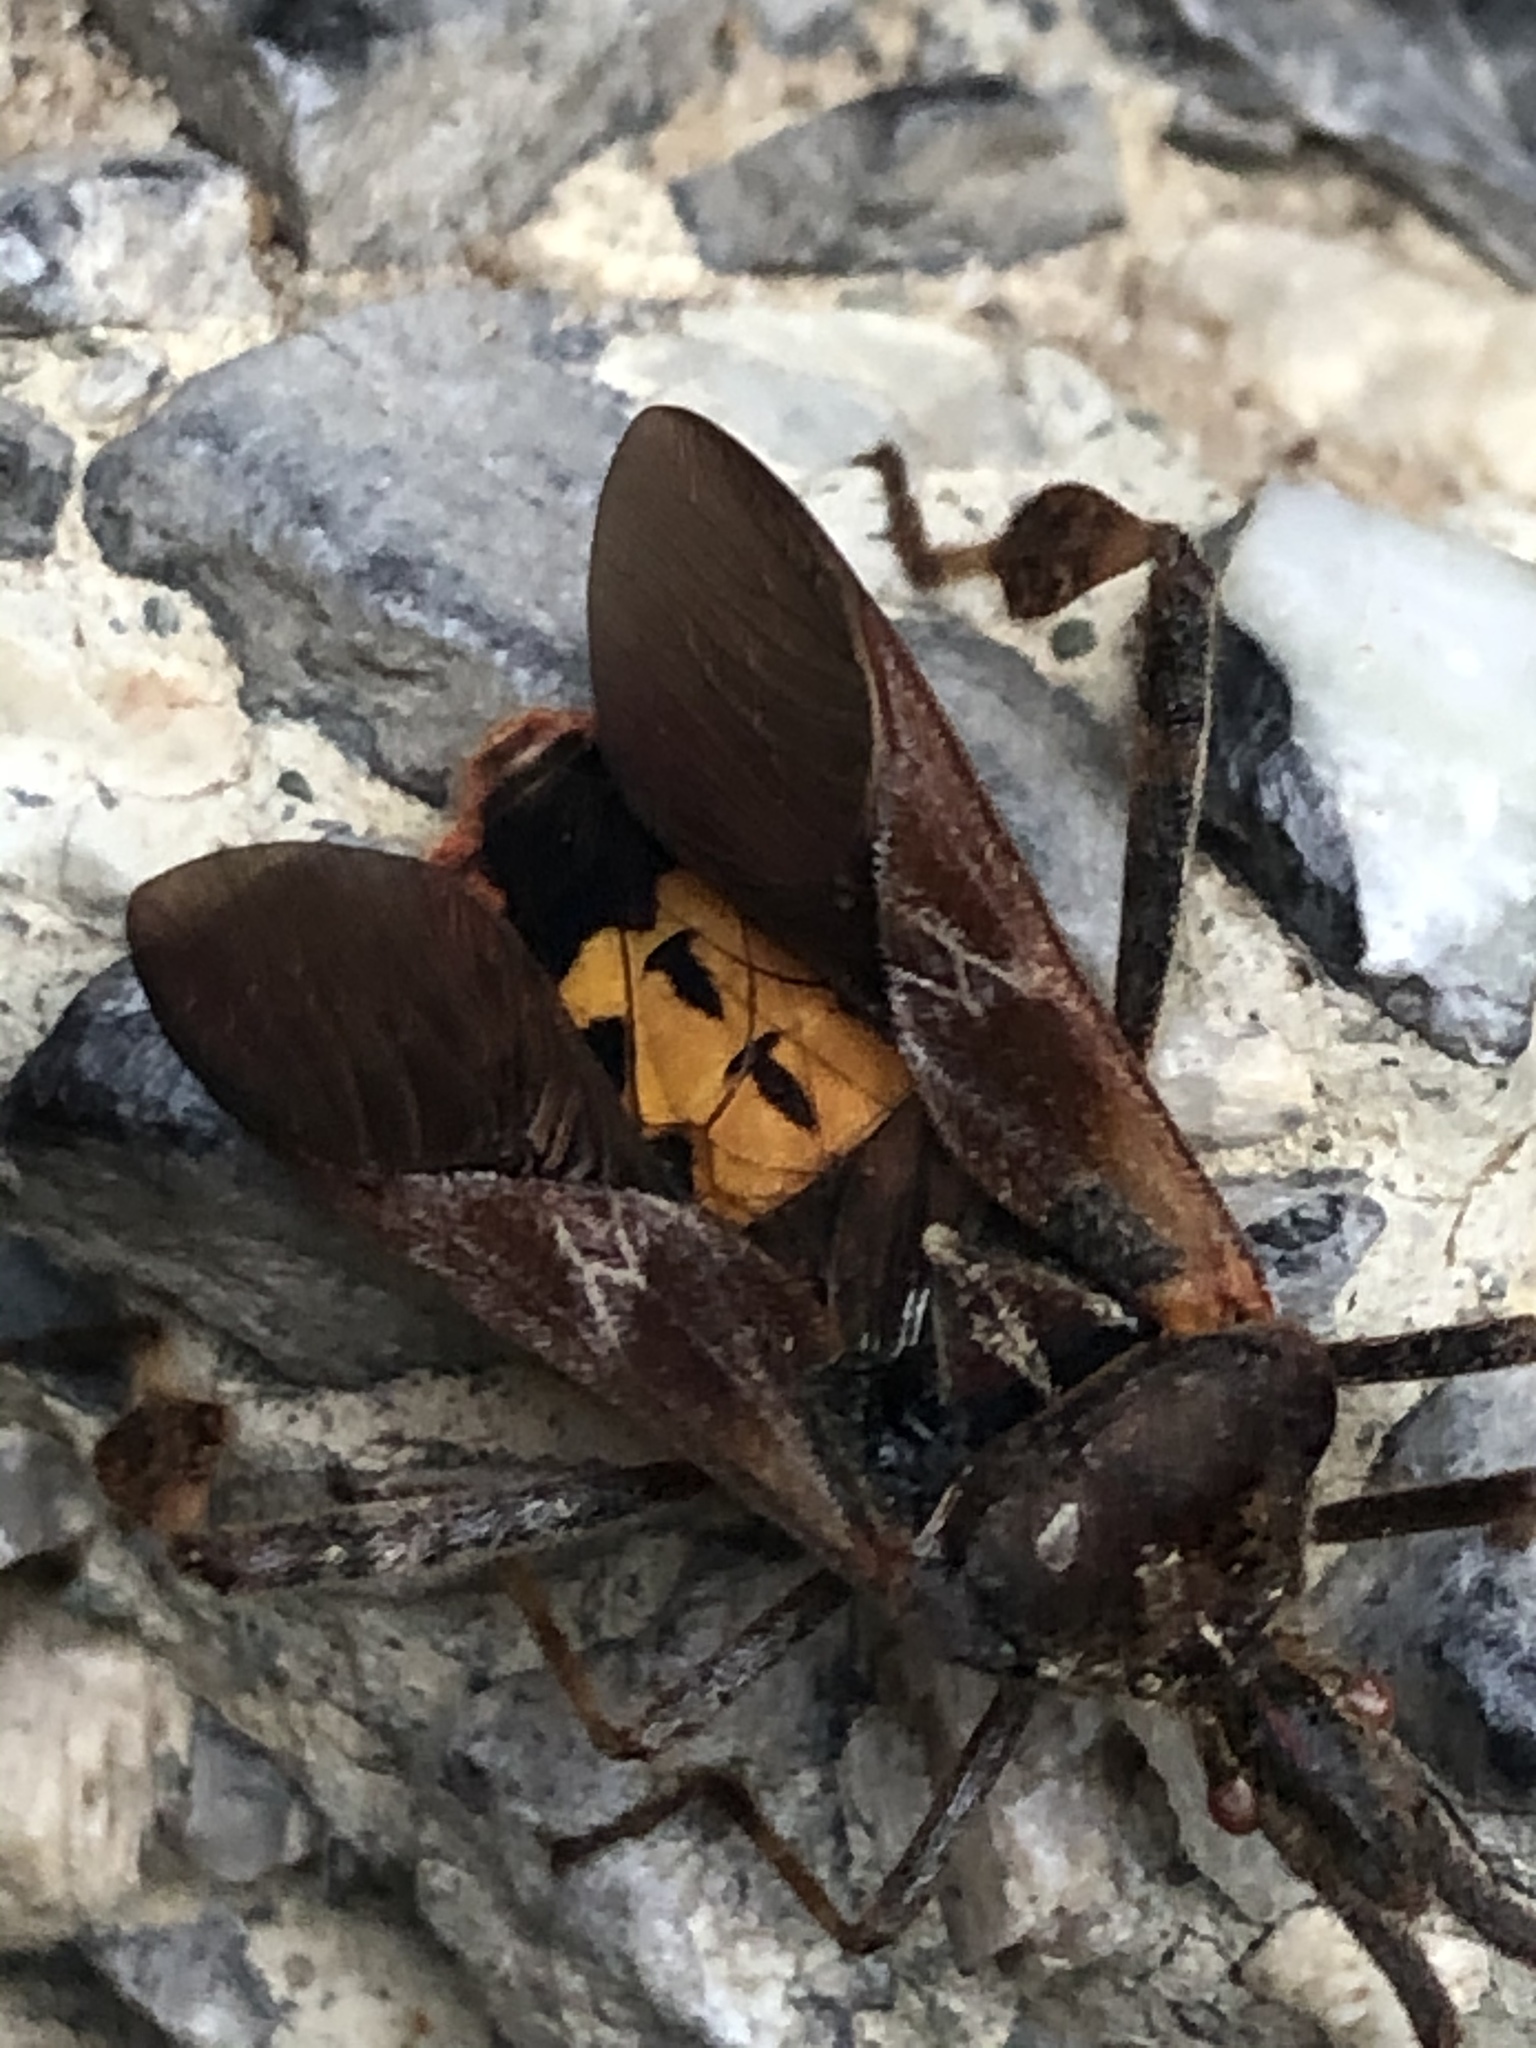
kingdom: Animalia
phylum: Arthropoda
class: Insecta
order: Hemiptera
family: Coreidae
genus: Leptoglossus
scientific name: Leptoglossus occidentalis
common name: Western conifer-seed bug
